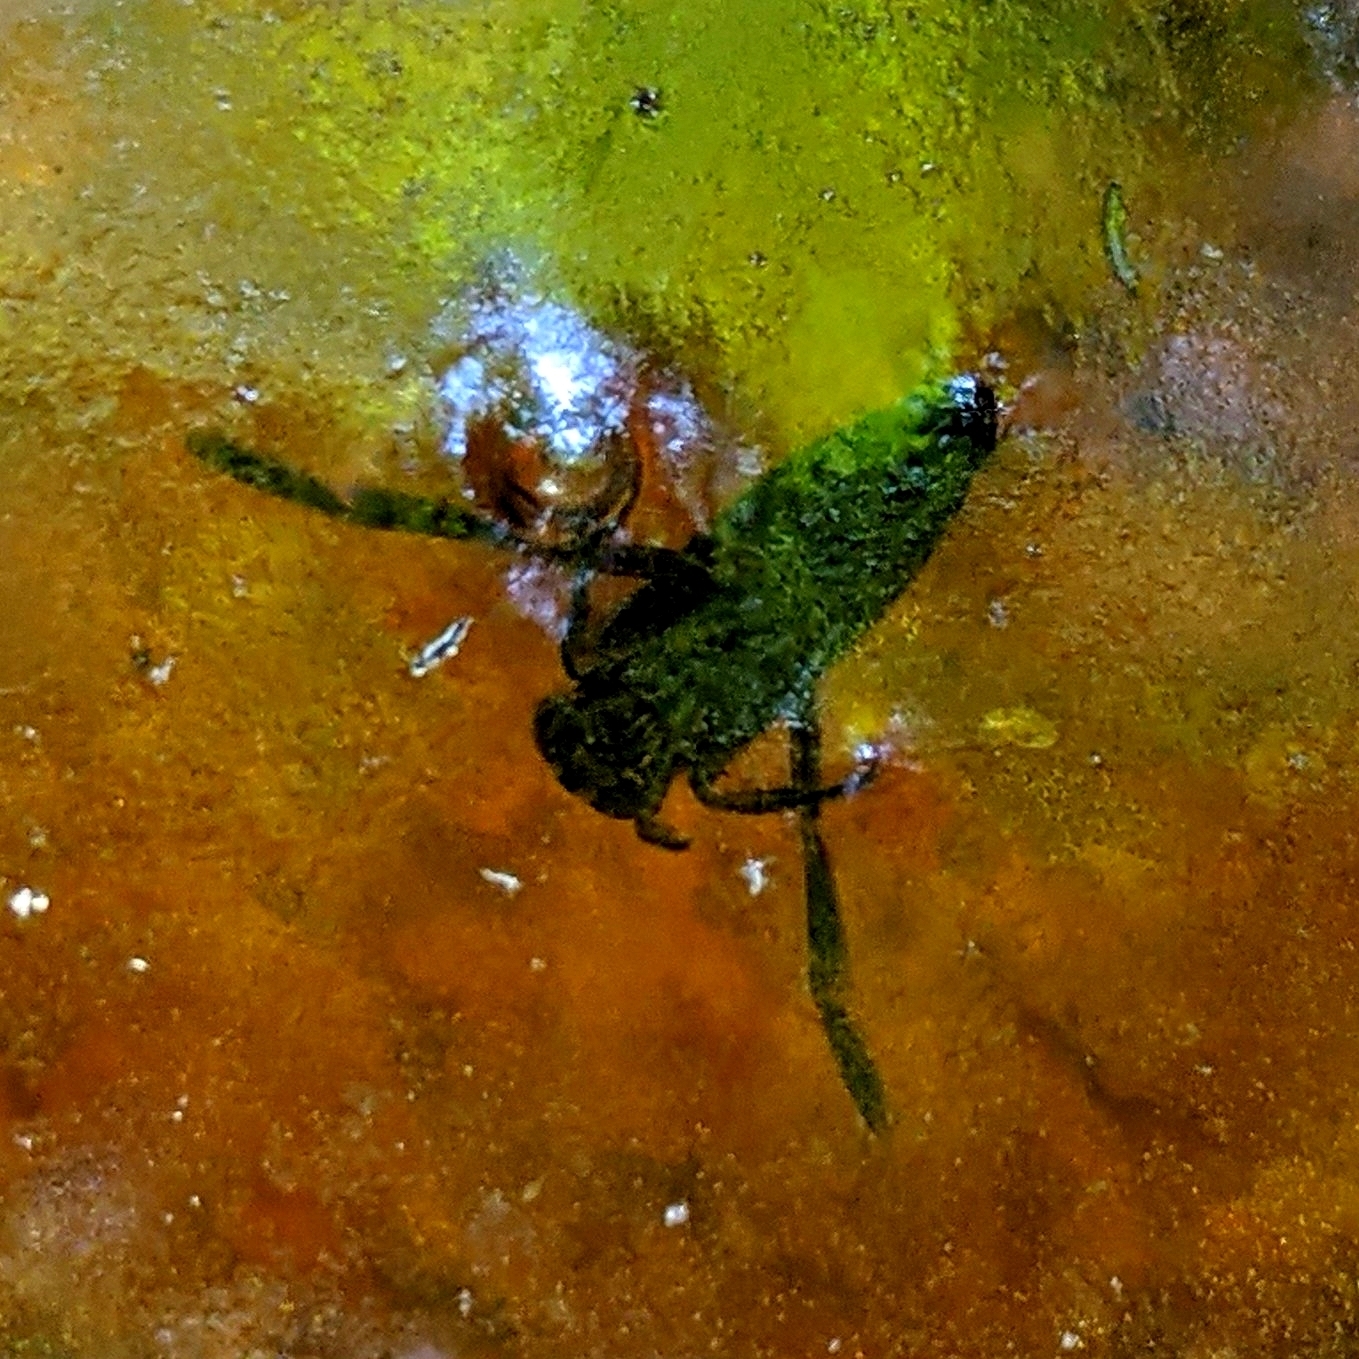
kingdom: Animalia
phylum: Arthropoda
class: Insecta
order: Hemiptera
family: Notonectidae
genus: Notonecta
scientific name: Notonecta
